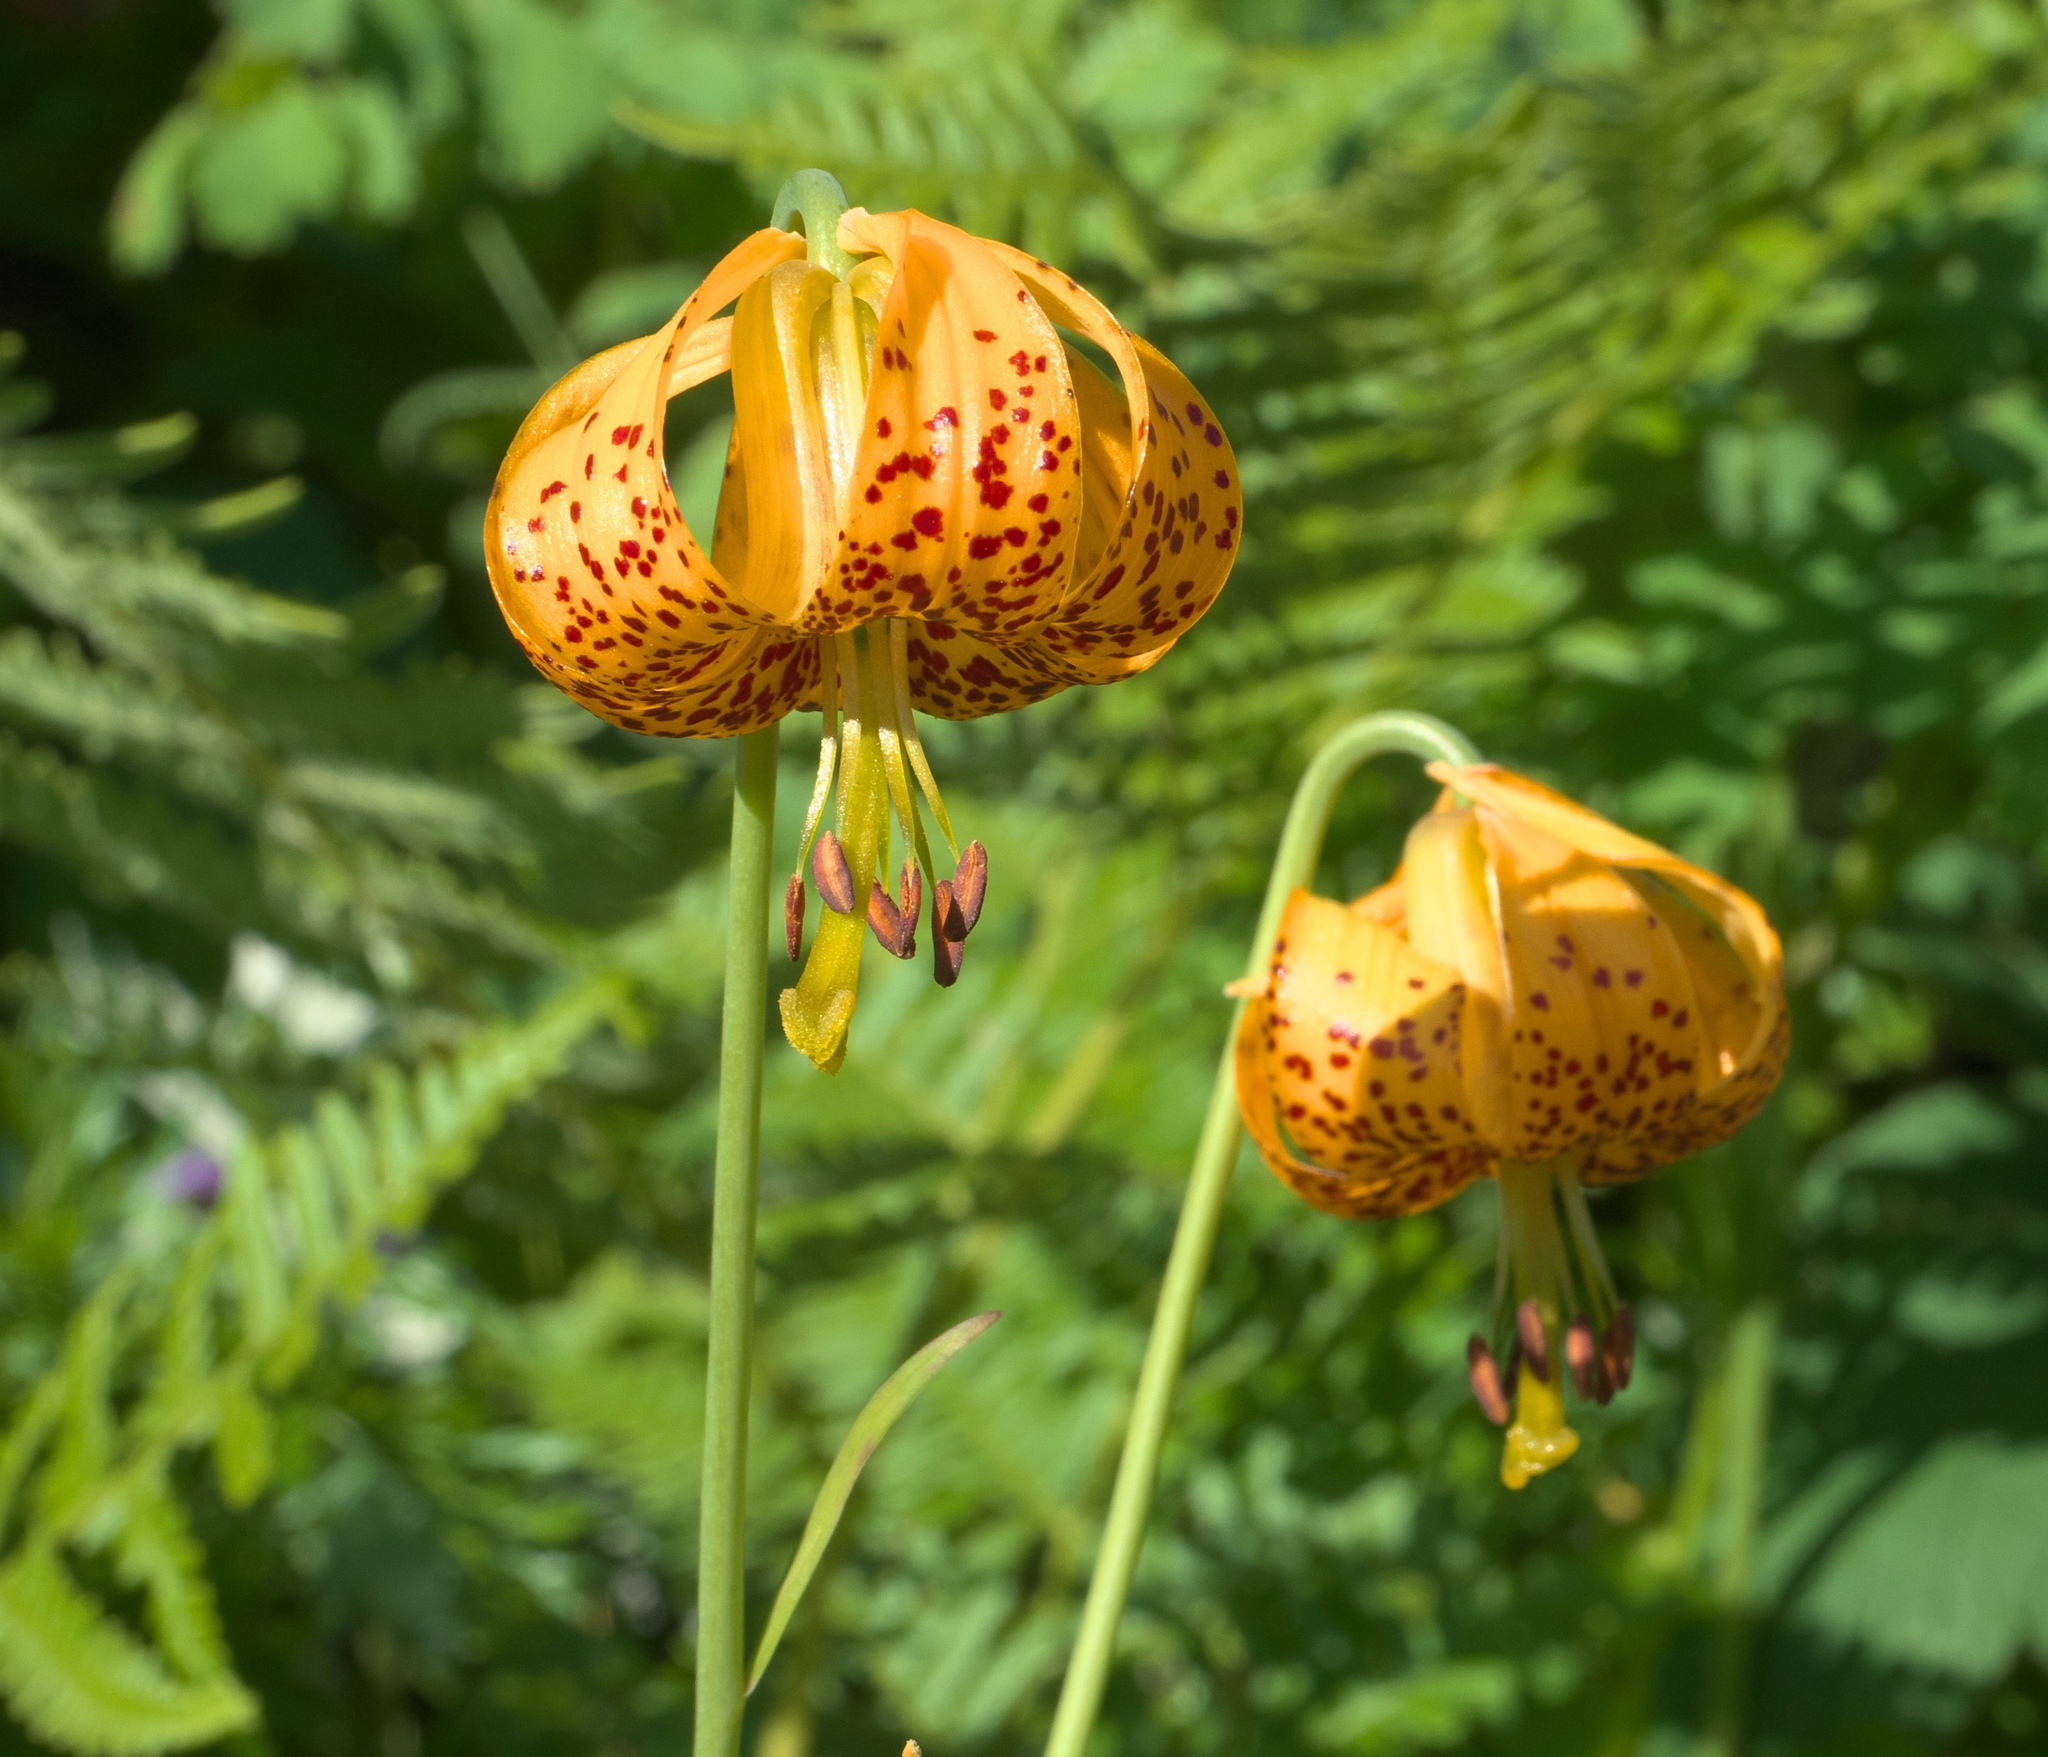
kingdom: Plantae
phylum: Tracheophyta
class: Liliopsida
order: Liliales
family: Liliaceae
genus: Lilium
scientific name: Lilium columbianum
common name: Columbia lily
